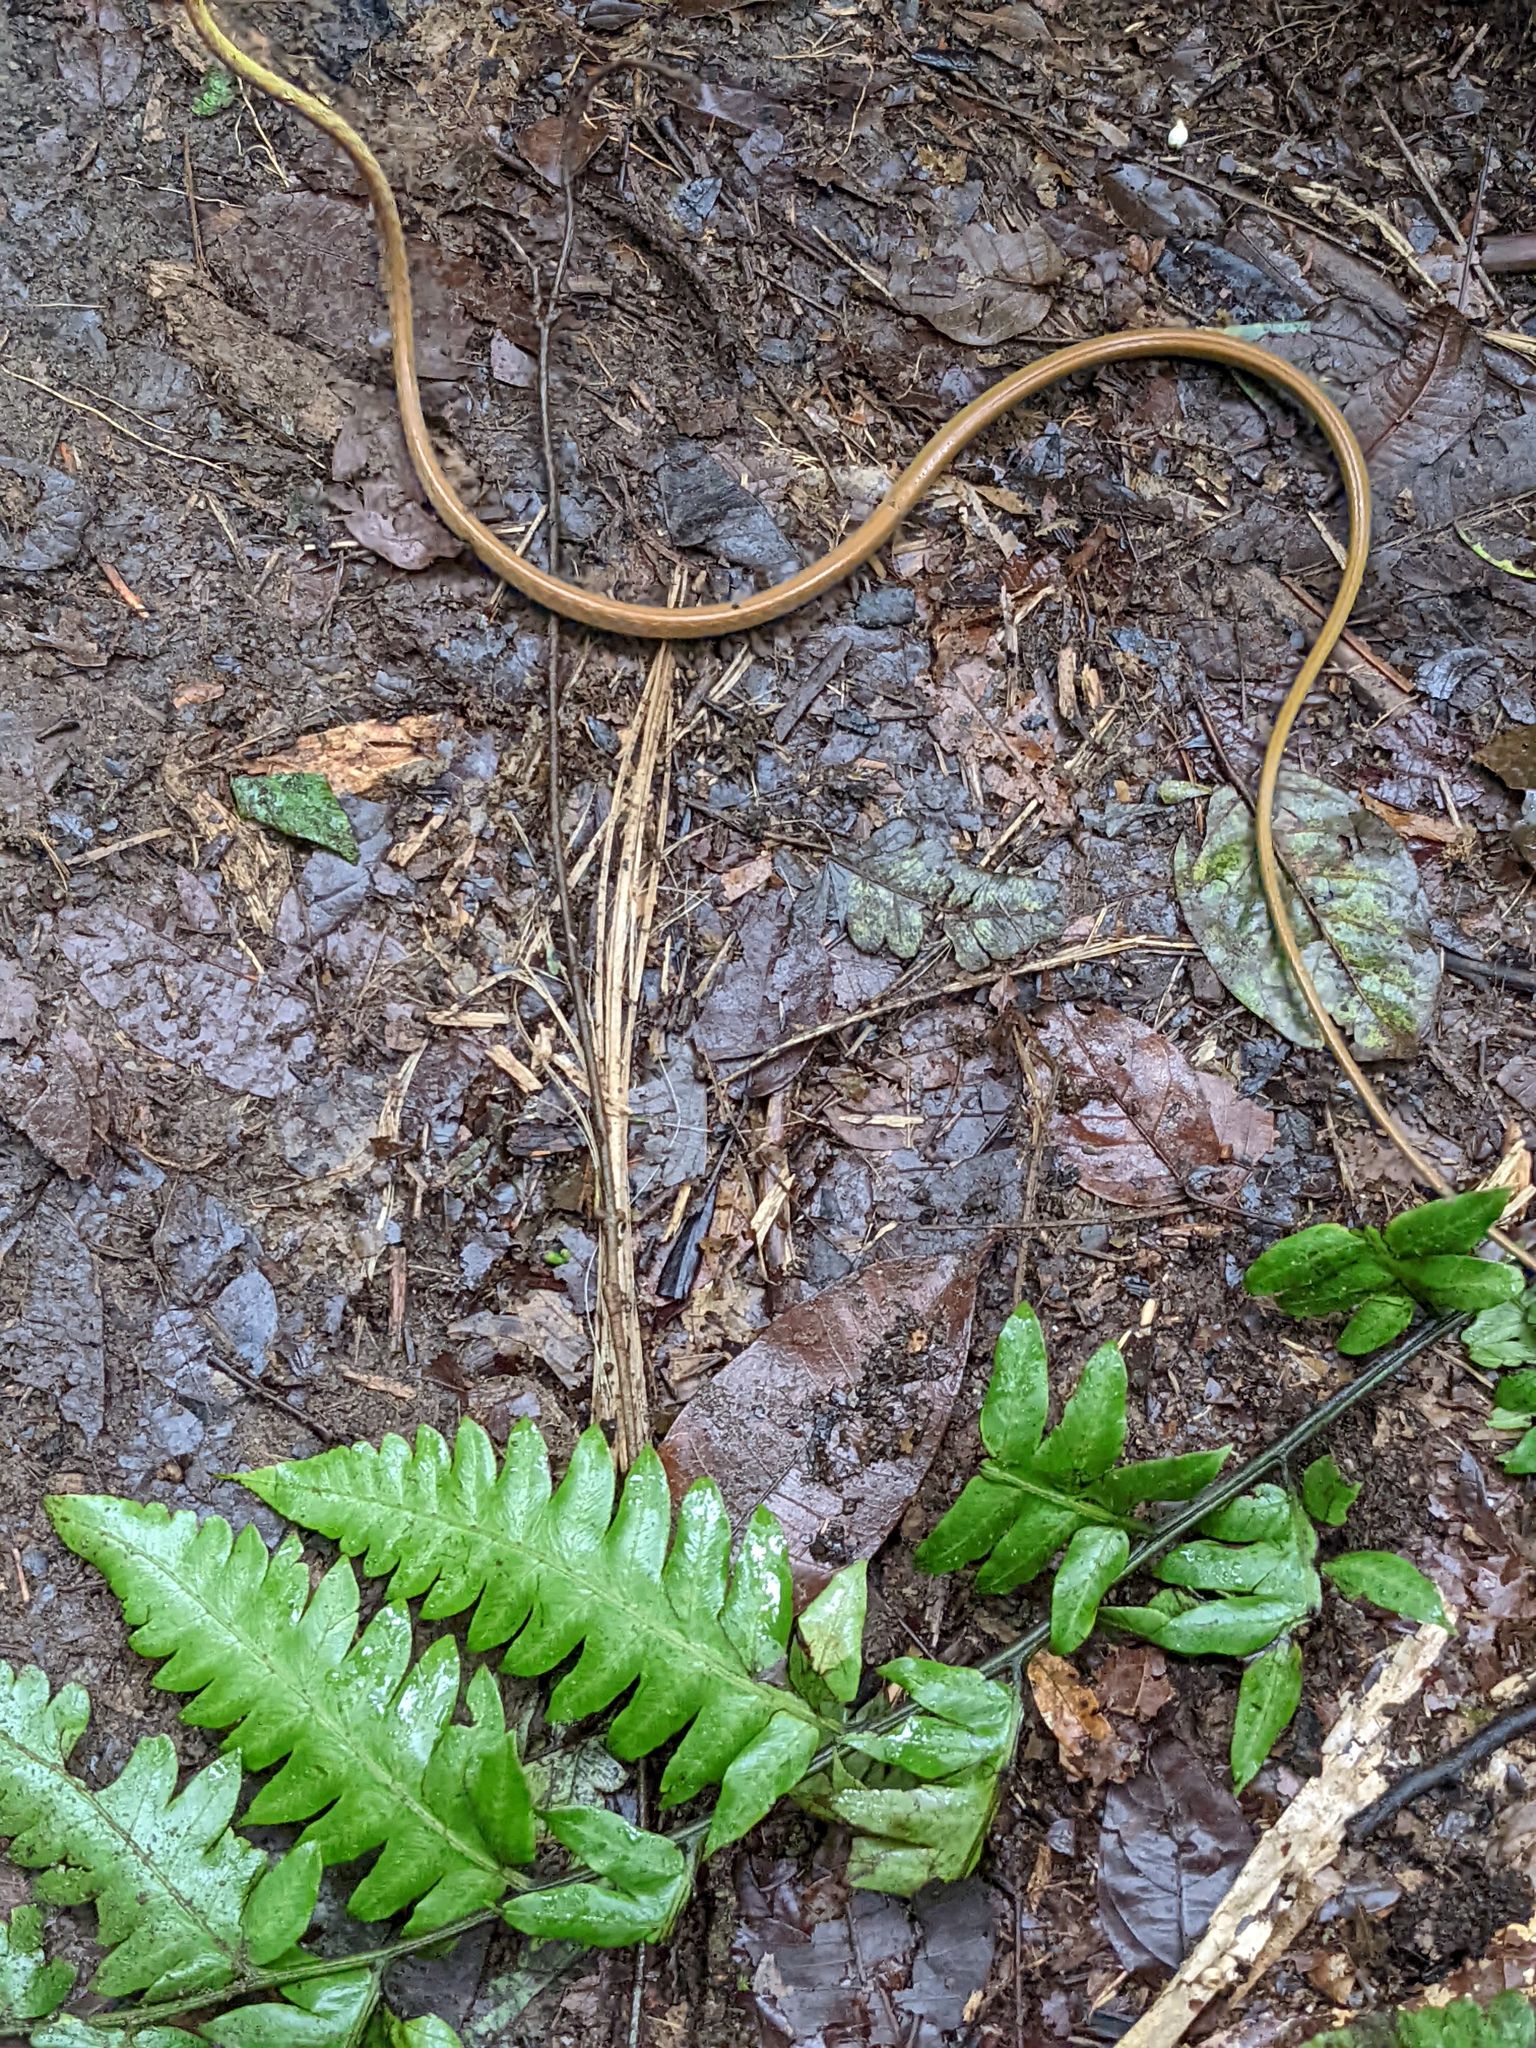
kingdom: Animalia
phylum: Chordata
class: Squamata
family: Colubridae
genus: Oxybelis
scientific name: Oxybelis brevirostris
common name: Cope's vine snake
